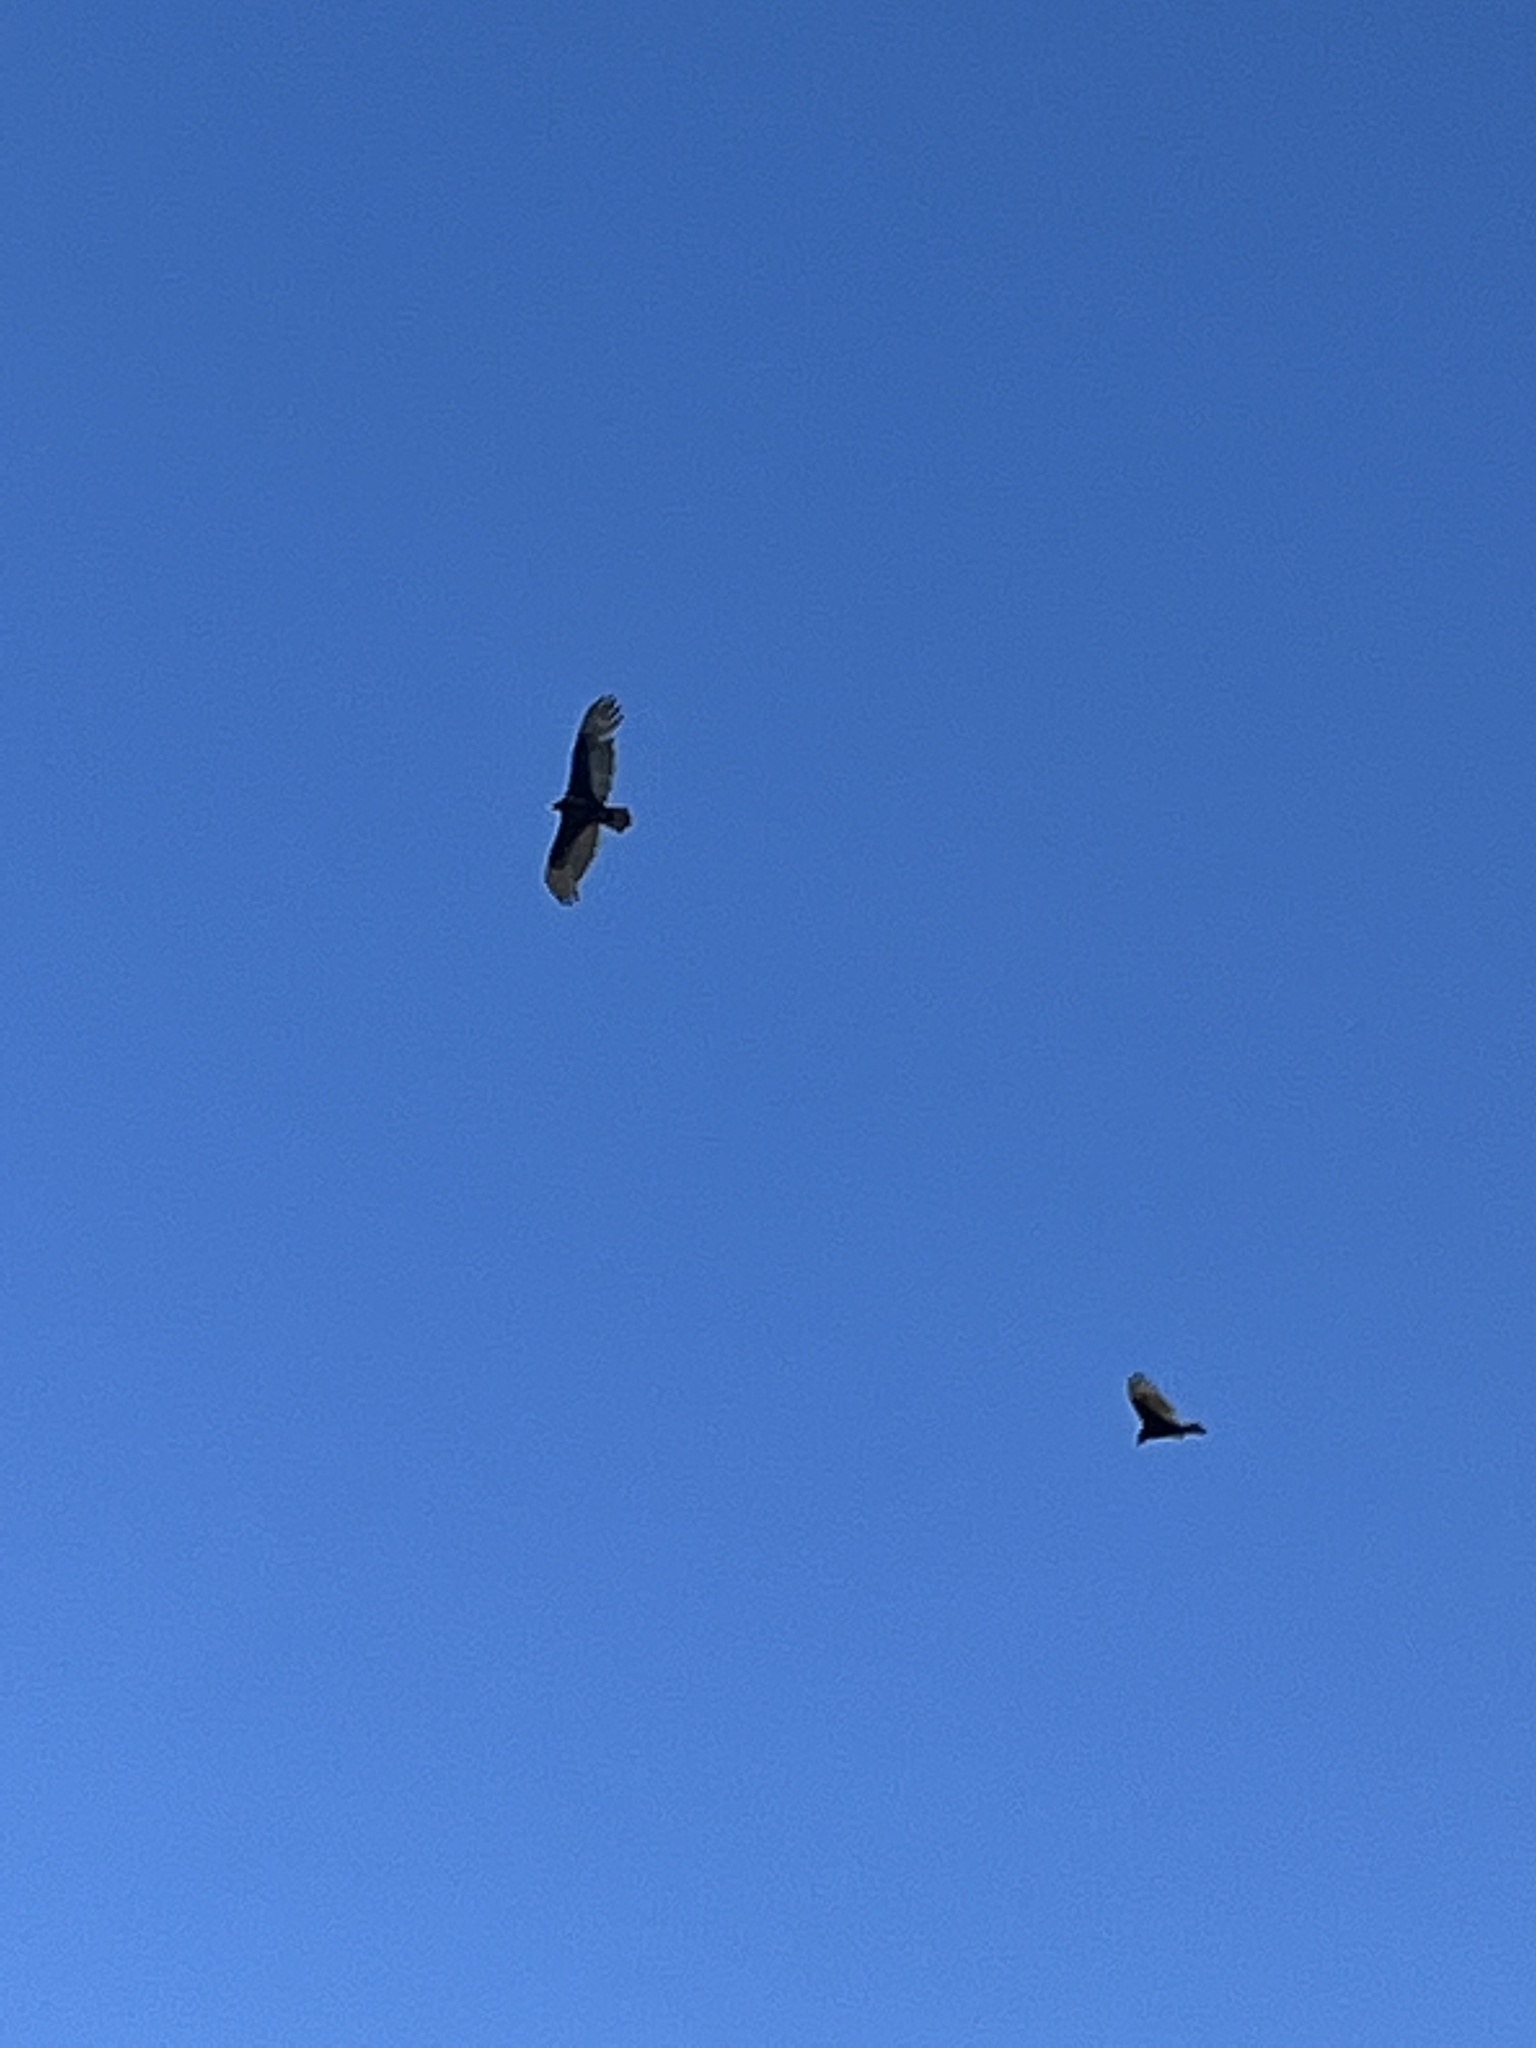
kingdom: Animalia
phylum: Chordata
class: Aves
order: Accipitriformes
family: Cathartidae
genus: Cathartes
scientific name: Cathartes aura
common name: Turkey vulture
